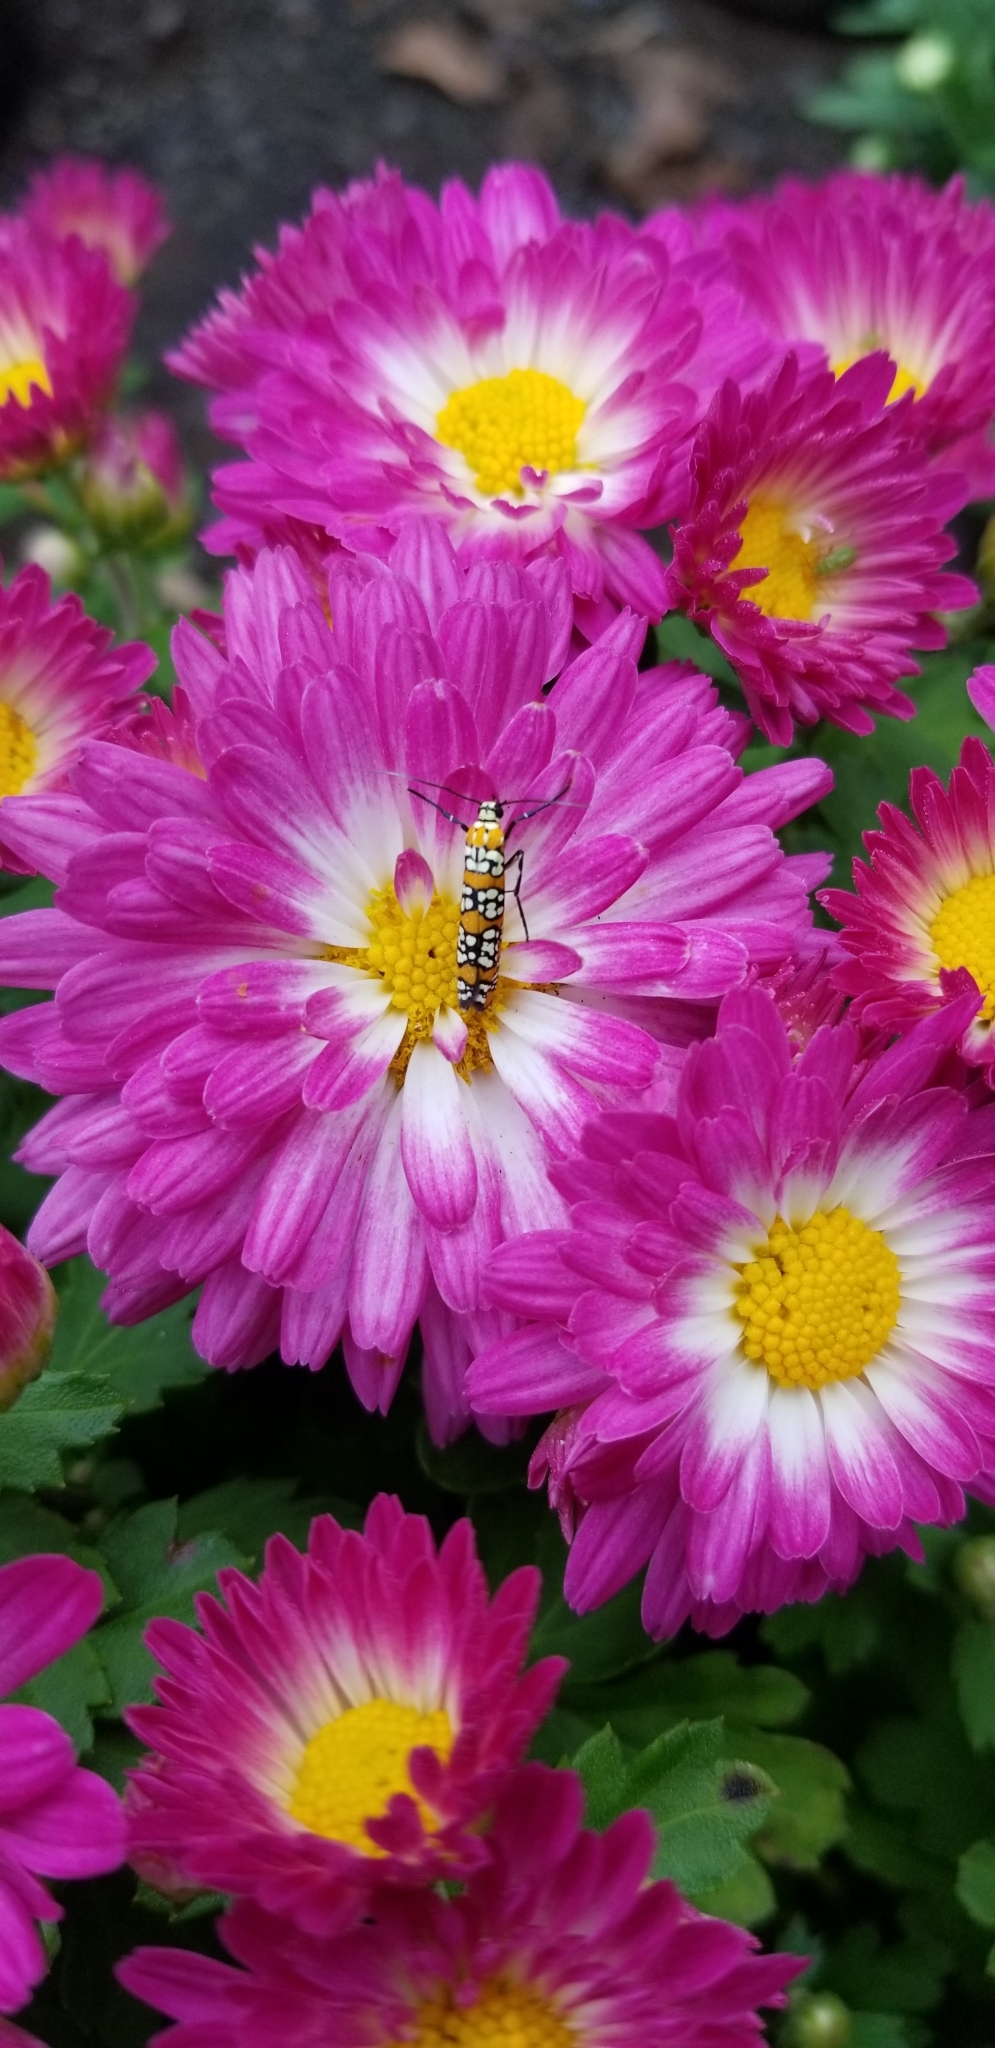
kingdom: Animalia
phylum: Arthropoda
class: Insecta
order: Lepidoptera
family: Attevidae
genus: Atteva
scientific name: Atteva punctella
